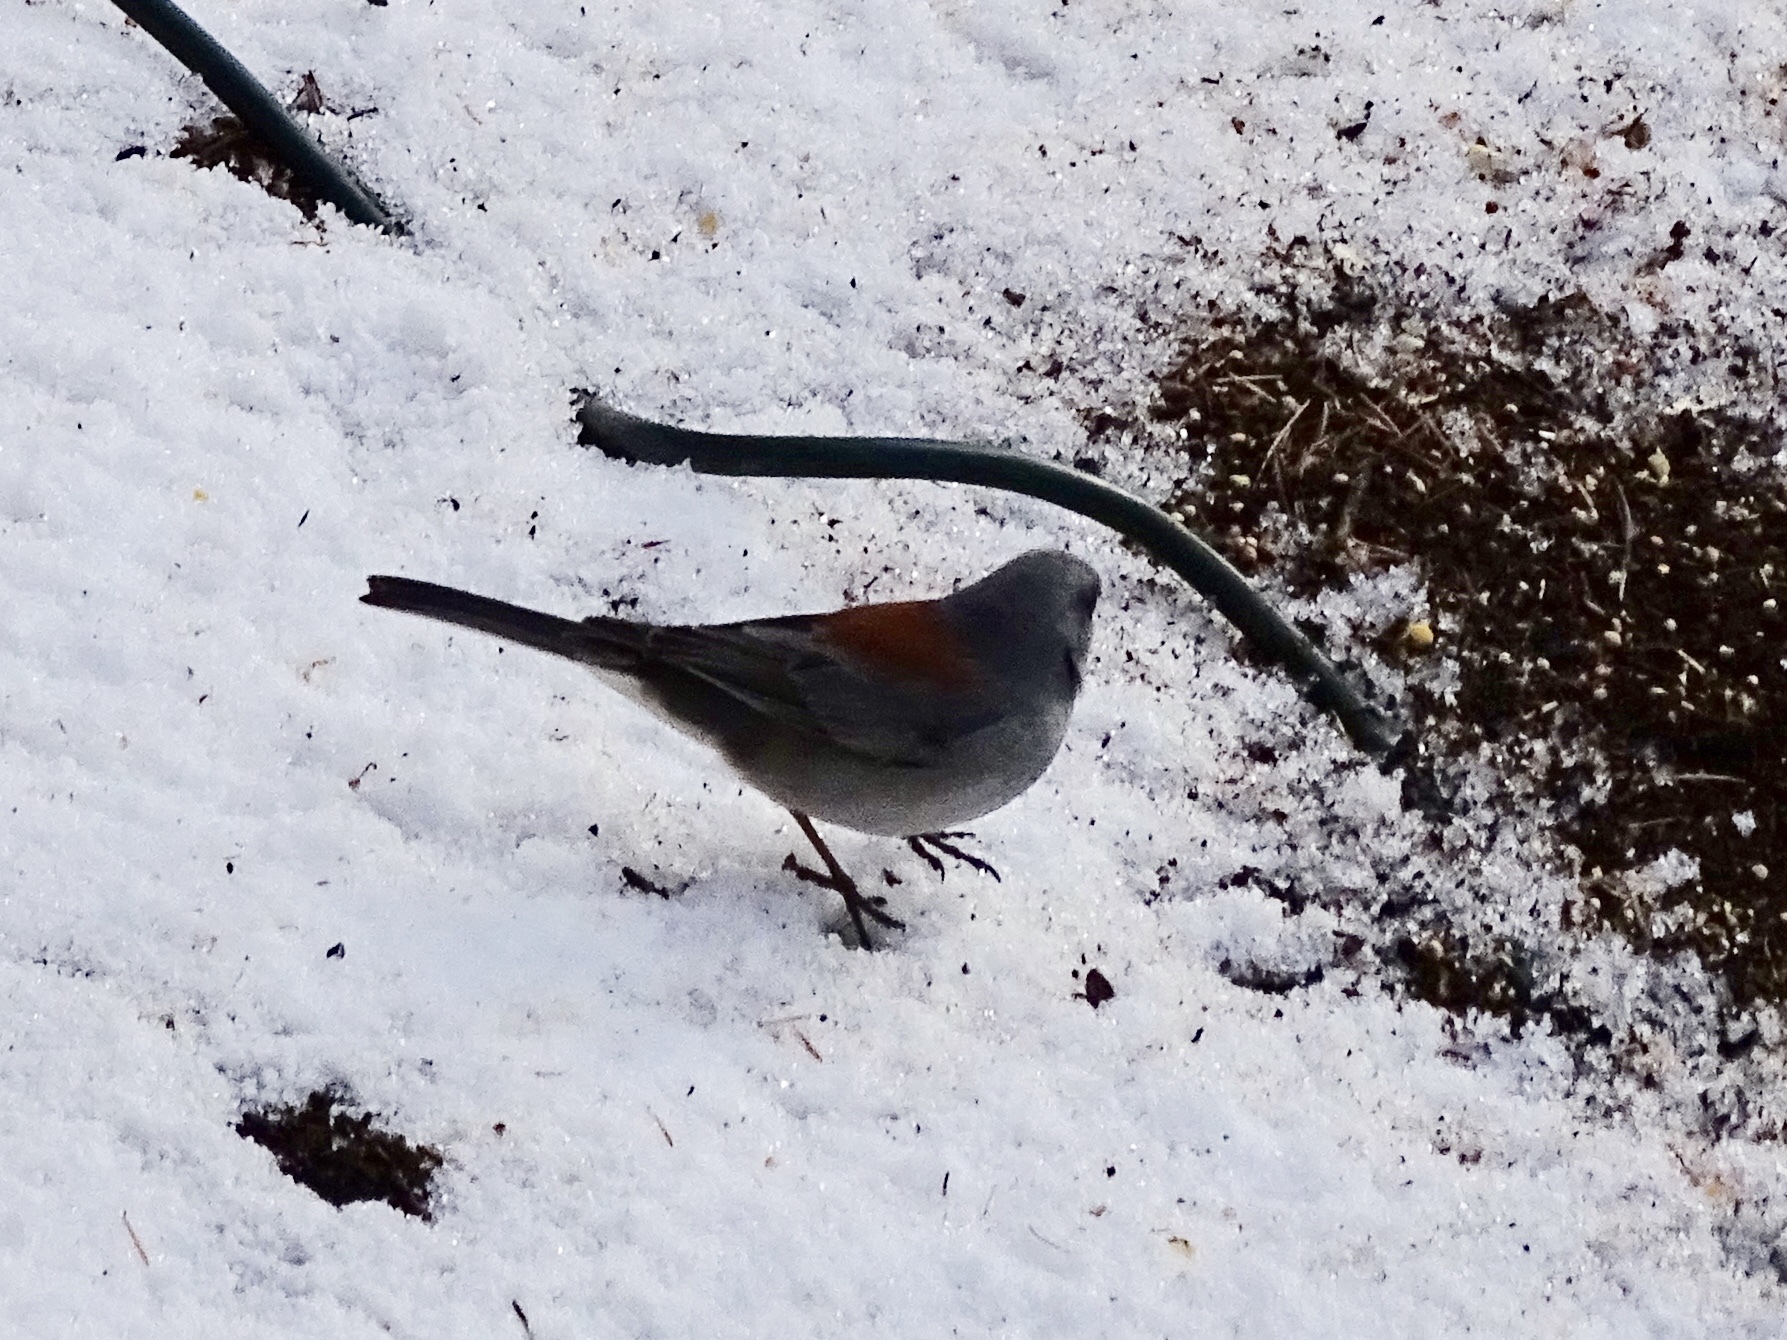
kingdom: Animalia
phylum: Chordata
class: Aves
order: Passeriformes
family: Passerellidae
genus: Junco
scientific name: Junco hyemalis
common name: Dark-eyed junco
